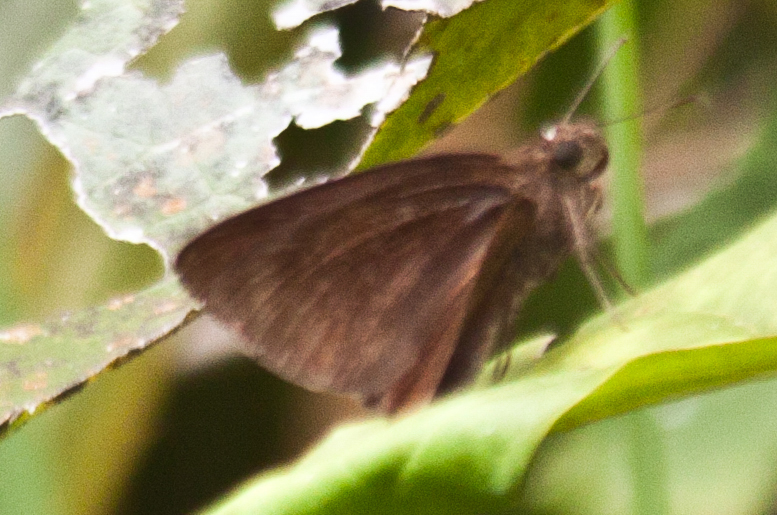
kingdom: Animalia
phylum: Arthropoda
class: Insecta
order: Lepidoptera
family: Hesperiidae
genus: Ancistroides
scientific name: Ancistroides nigrita
